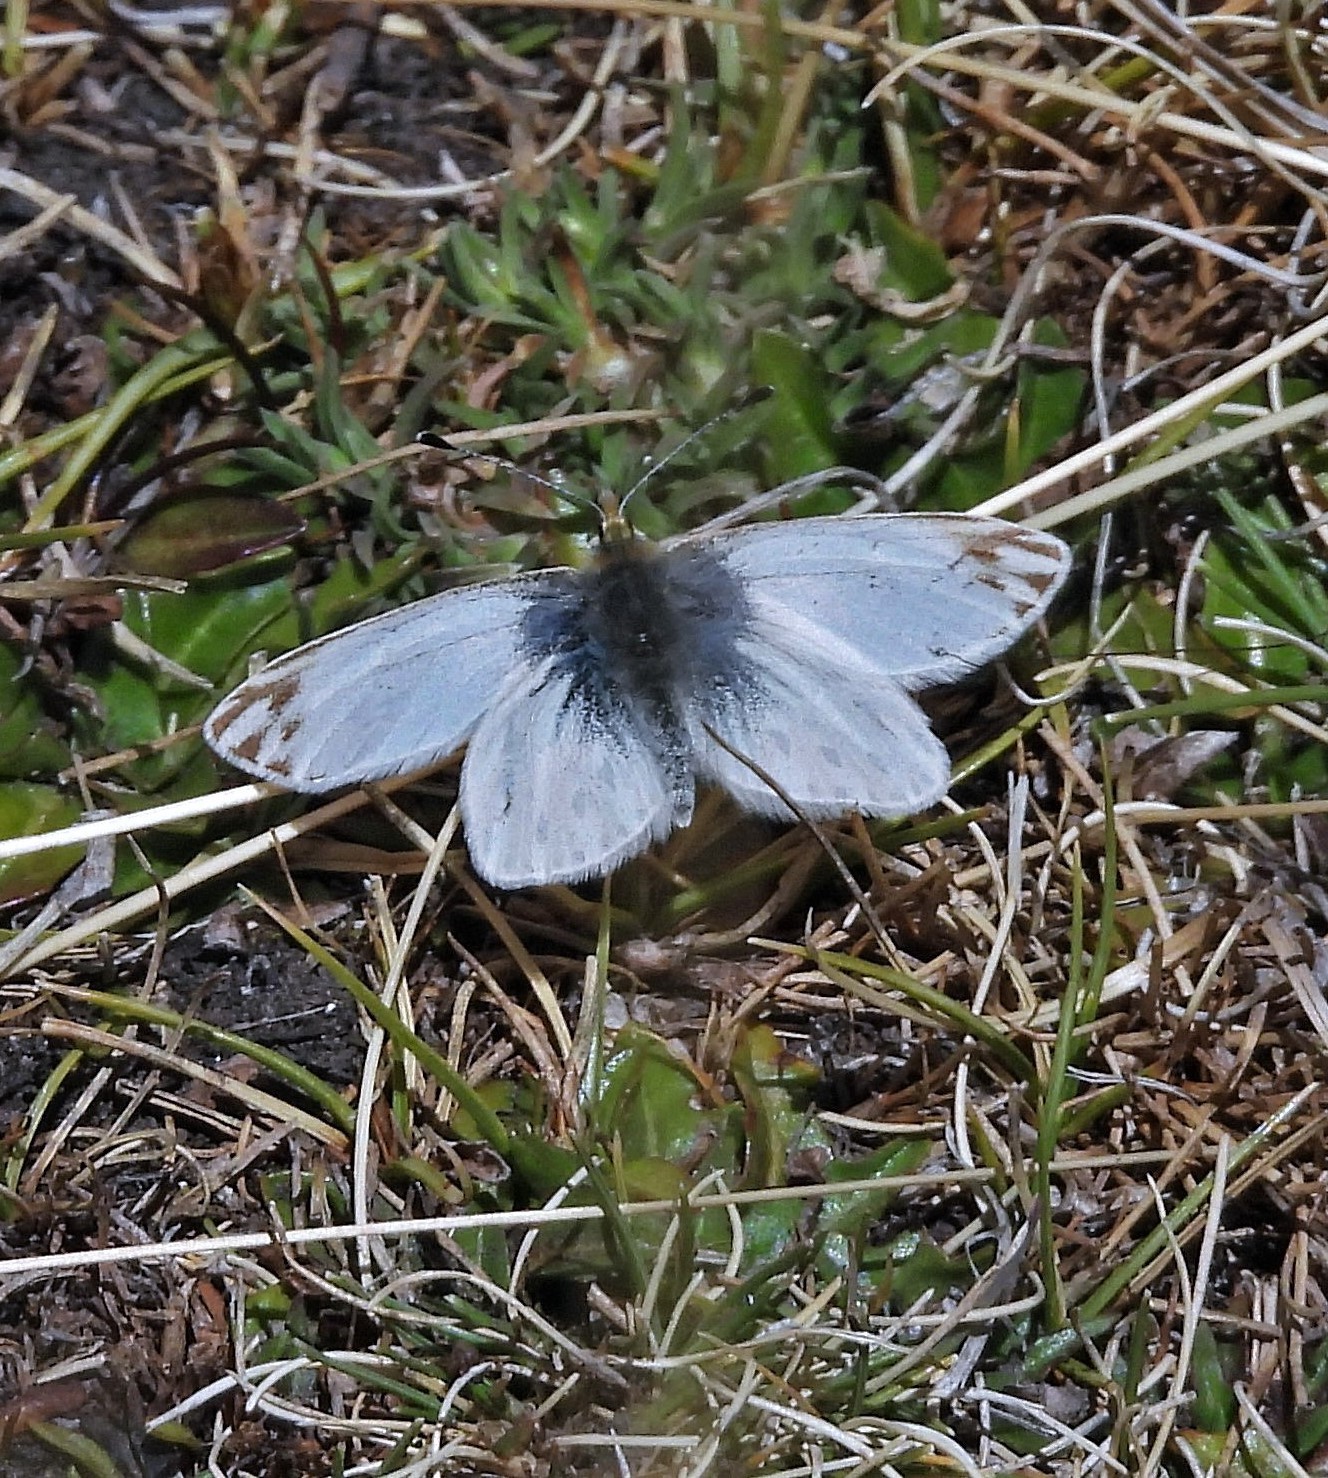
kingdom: Animalia
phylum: Arthropoda
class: Insecta
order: Lepidoptera
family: Pieridae
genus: Infraphulia
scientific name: Infraphulia ilyodes
